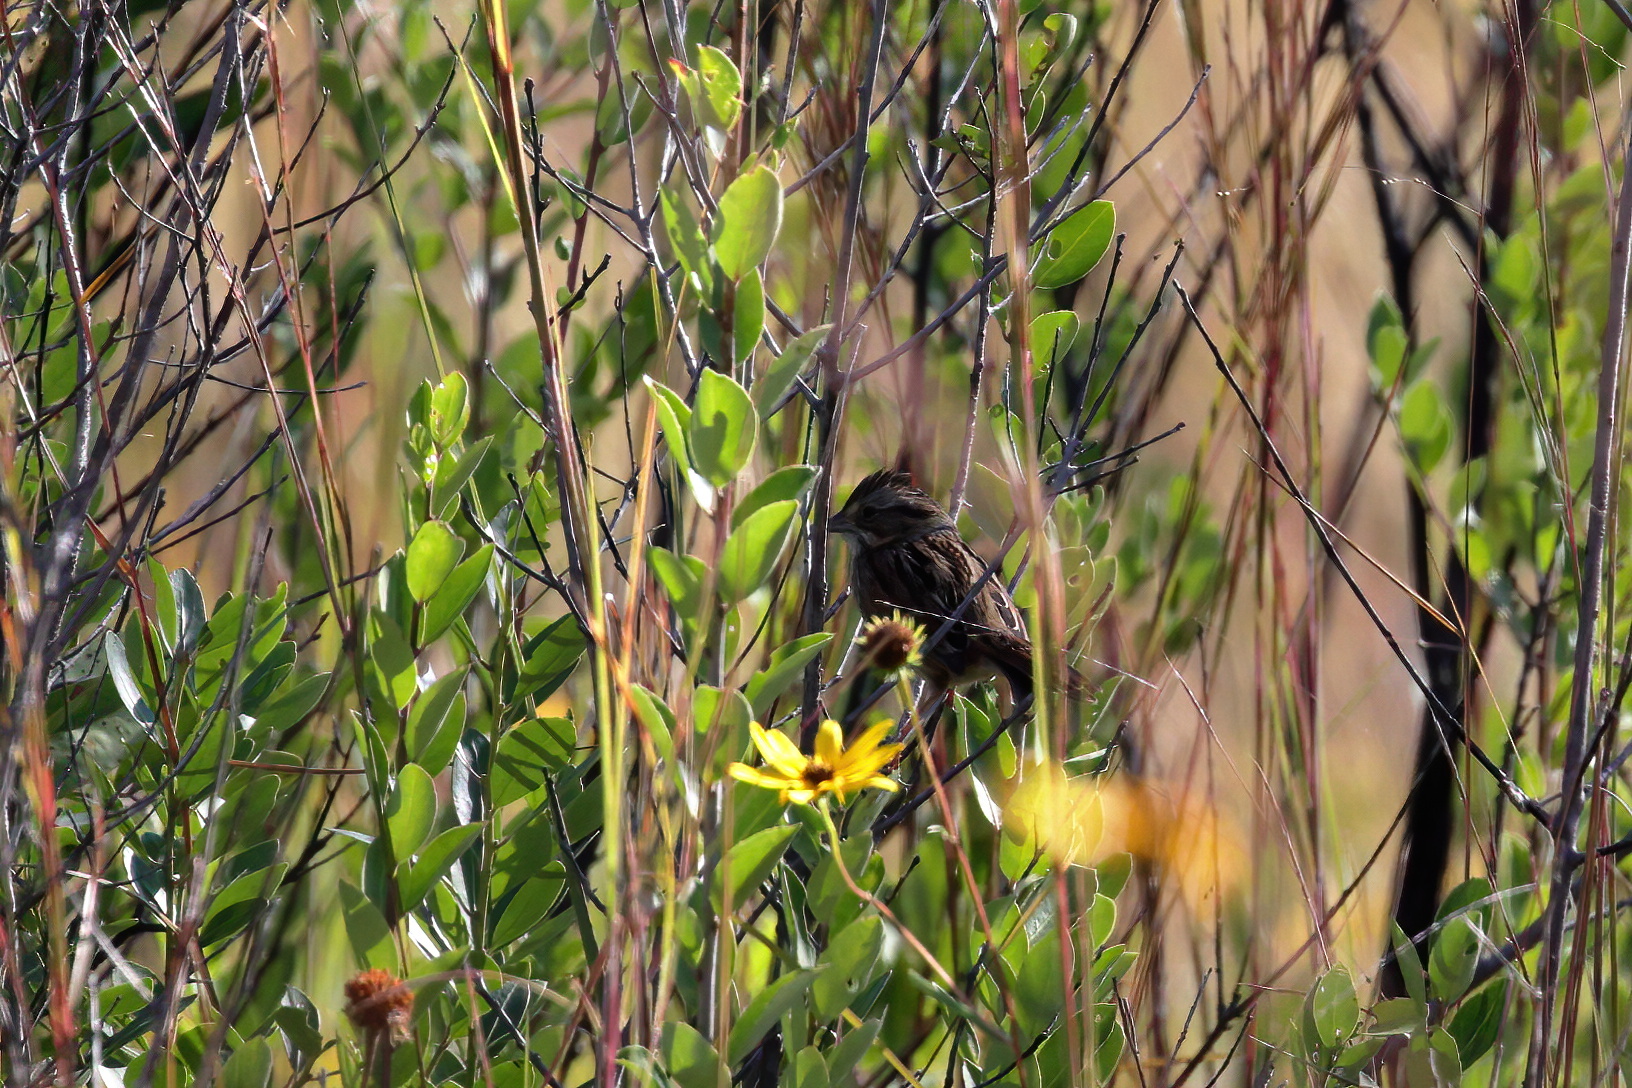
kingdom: Animalia
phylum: Chordata
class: Aves
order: Passeriformes
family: Passerellidae
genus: Melospiza
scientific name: Melospiza georgiana
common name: Swamp sparrow
